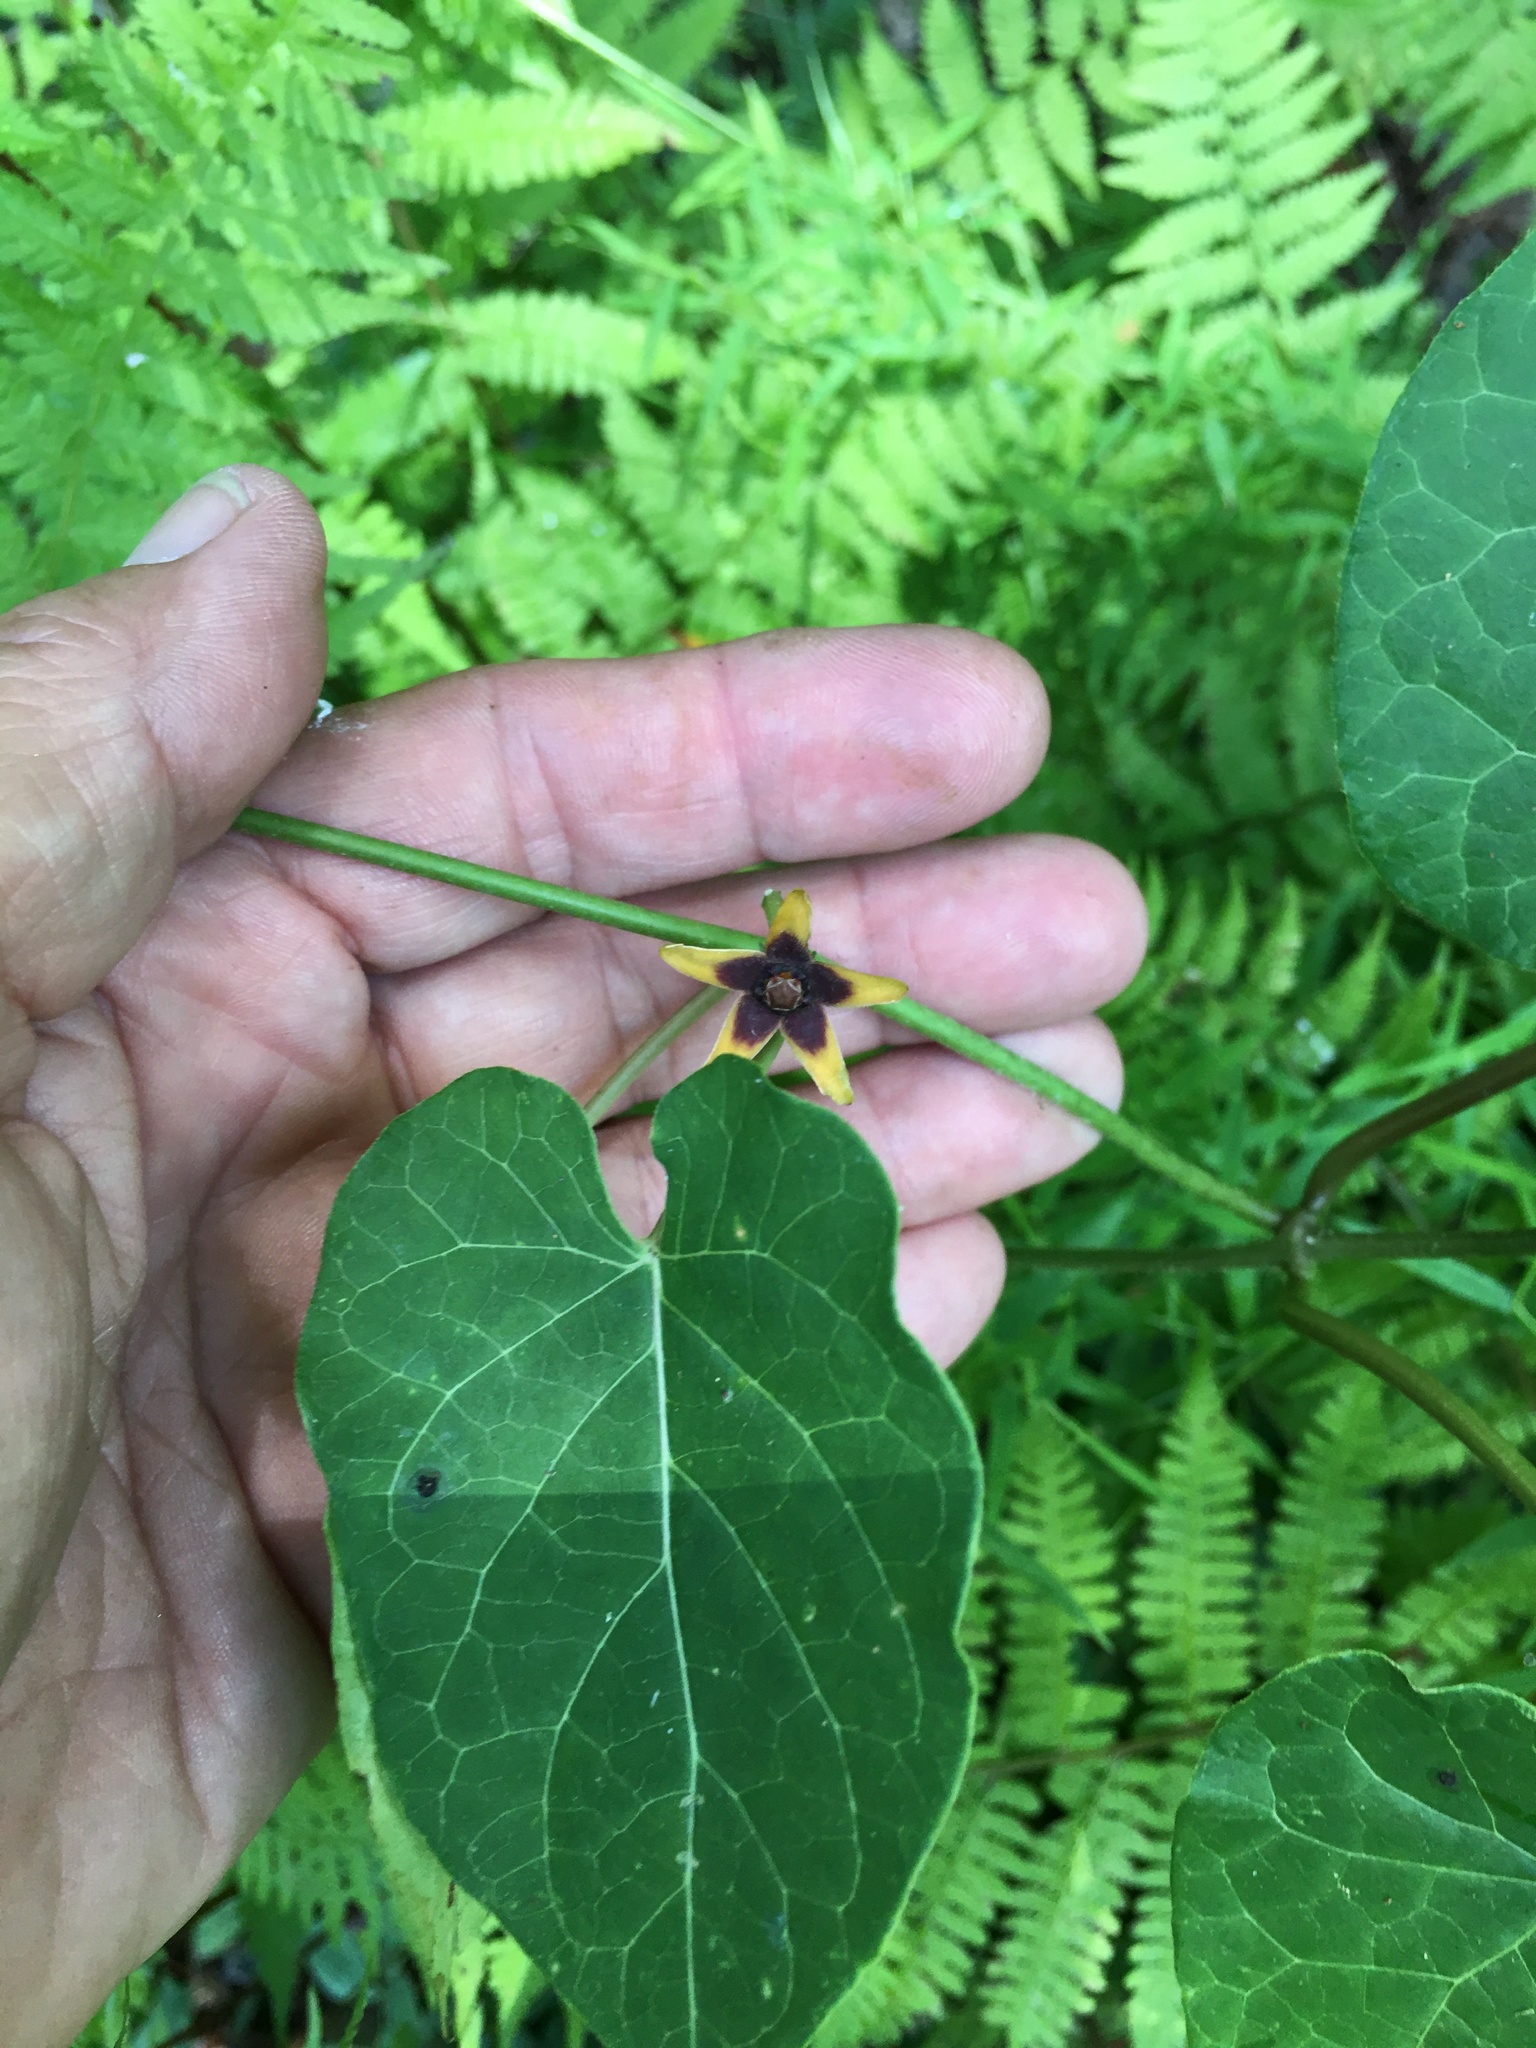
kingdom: Plantae
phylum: Tracheophyta
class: Magnoliopsida
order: Gentianales
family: Apocynaceae
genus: Gonolobus
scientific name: Gonolobus suberosus
